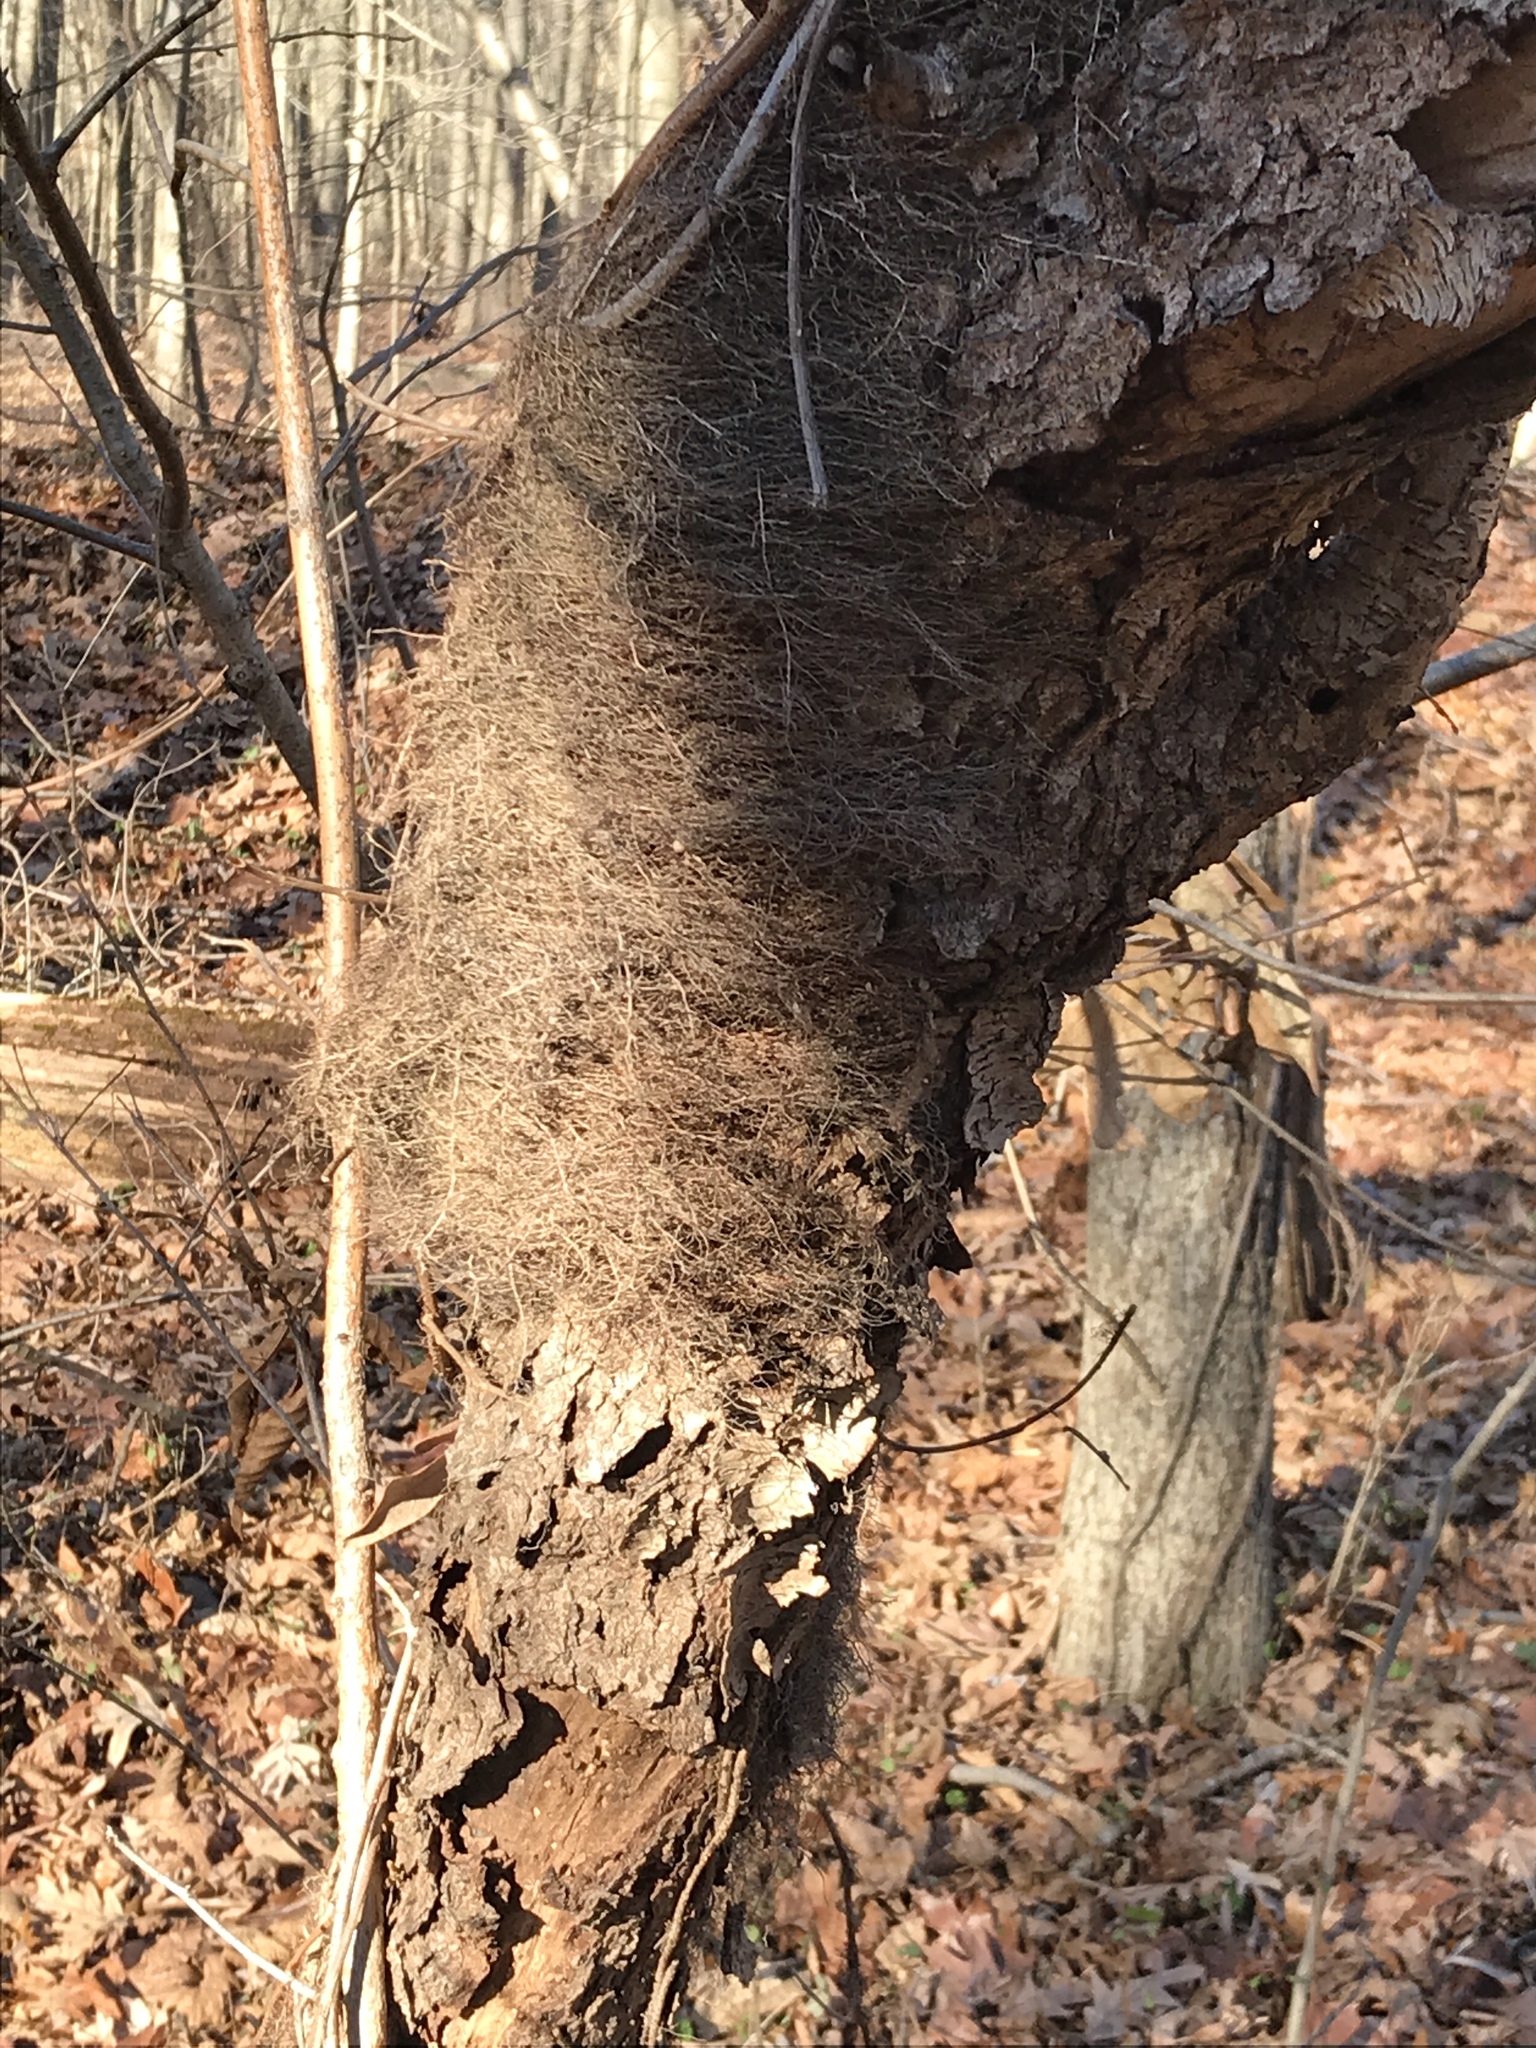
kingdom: Plantae
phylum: Tracheophyta
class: Magnoliopsida
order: Sapindales
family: Anacardiaceae
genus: Toxicodendron
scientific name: Toxicodendron radicans
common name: Poison ivy
